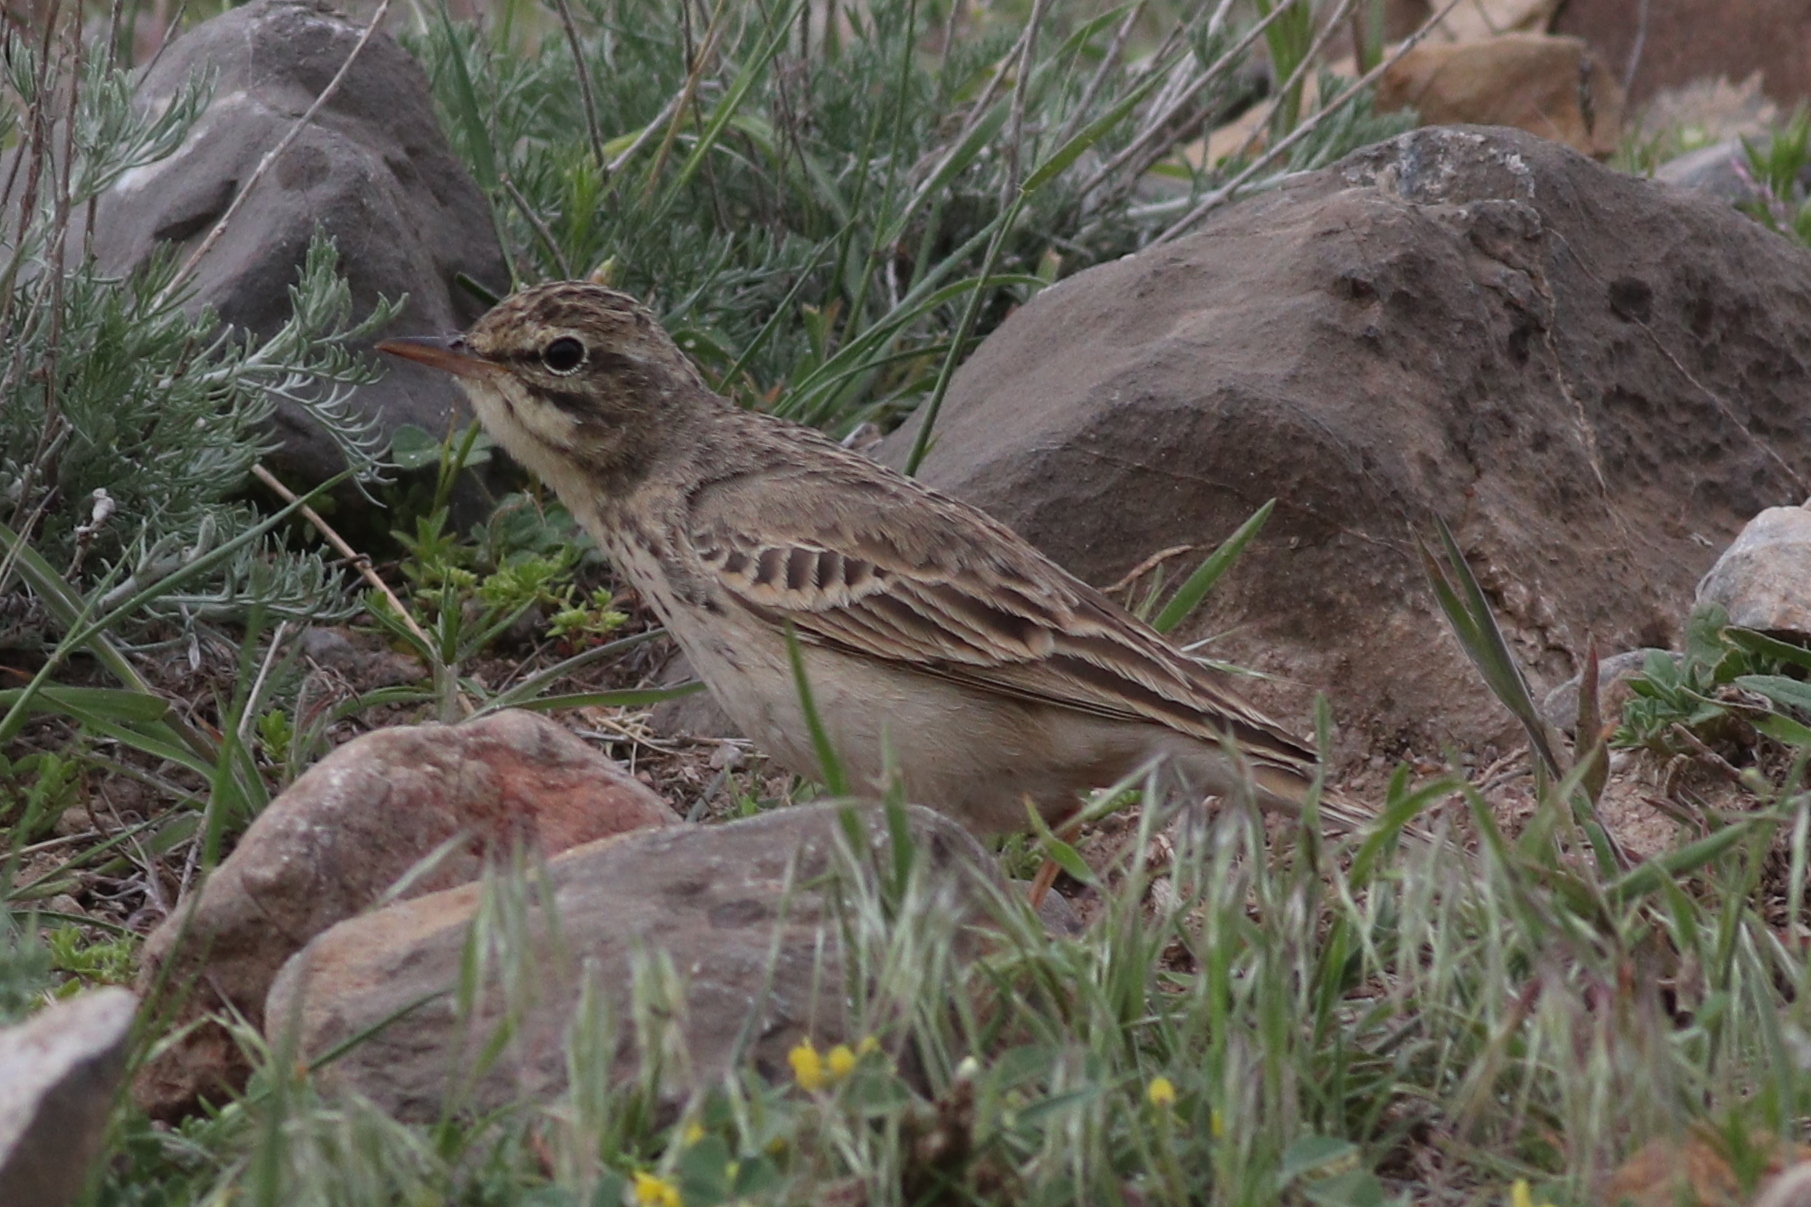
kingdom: Animalia
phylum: Chordata
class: Aves
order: Passeriformes
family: Motacillidae
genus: Anthus
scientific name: Anthus campestris
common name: Tawny pipit
